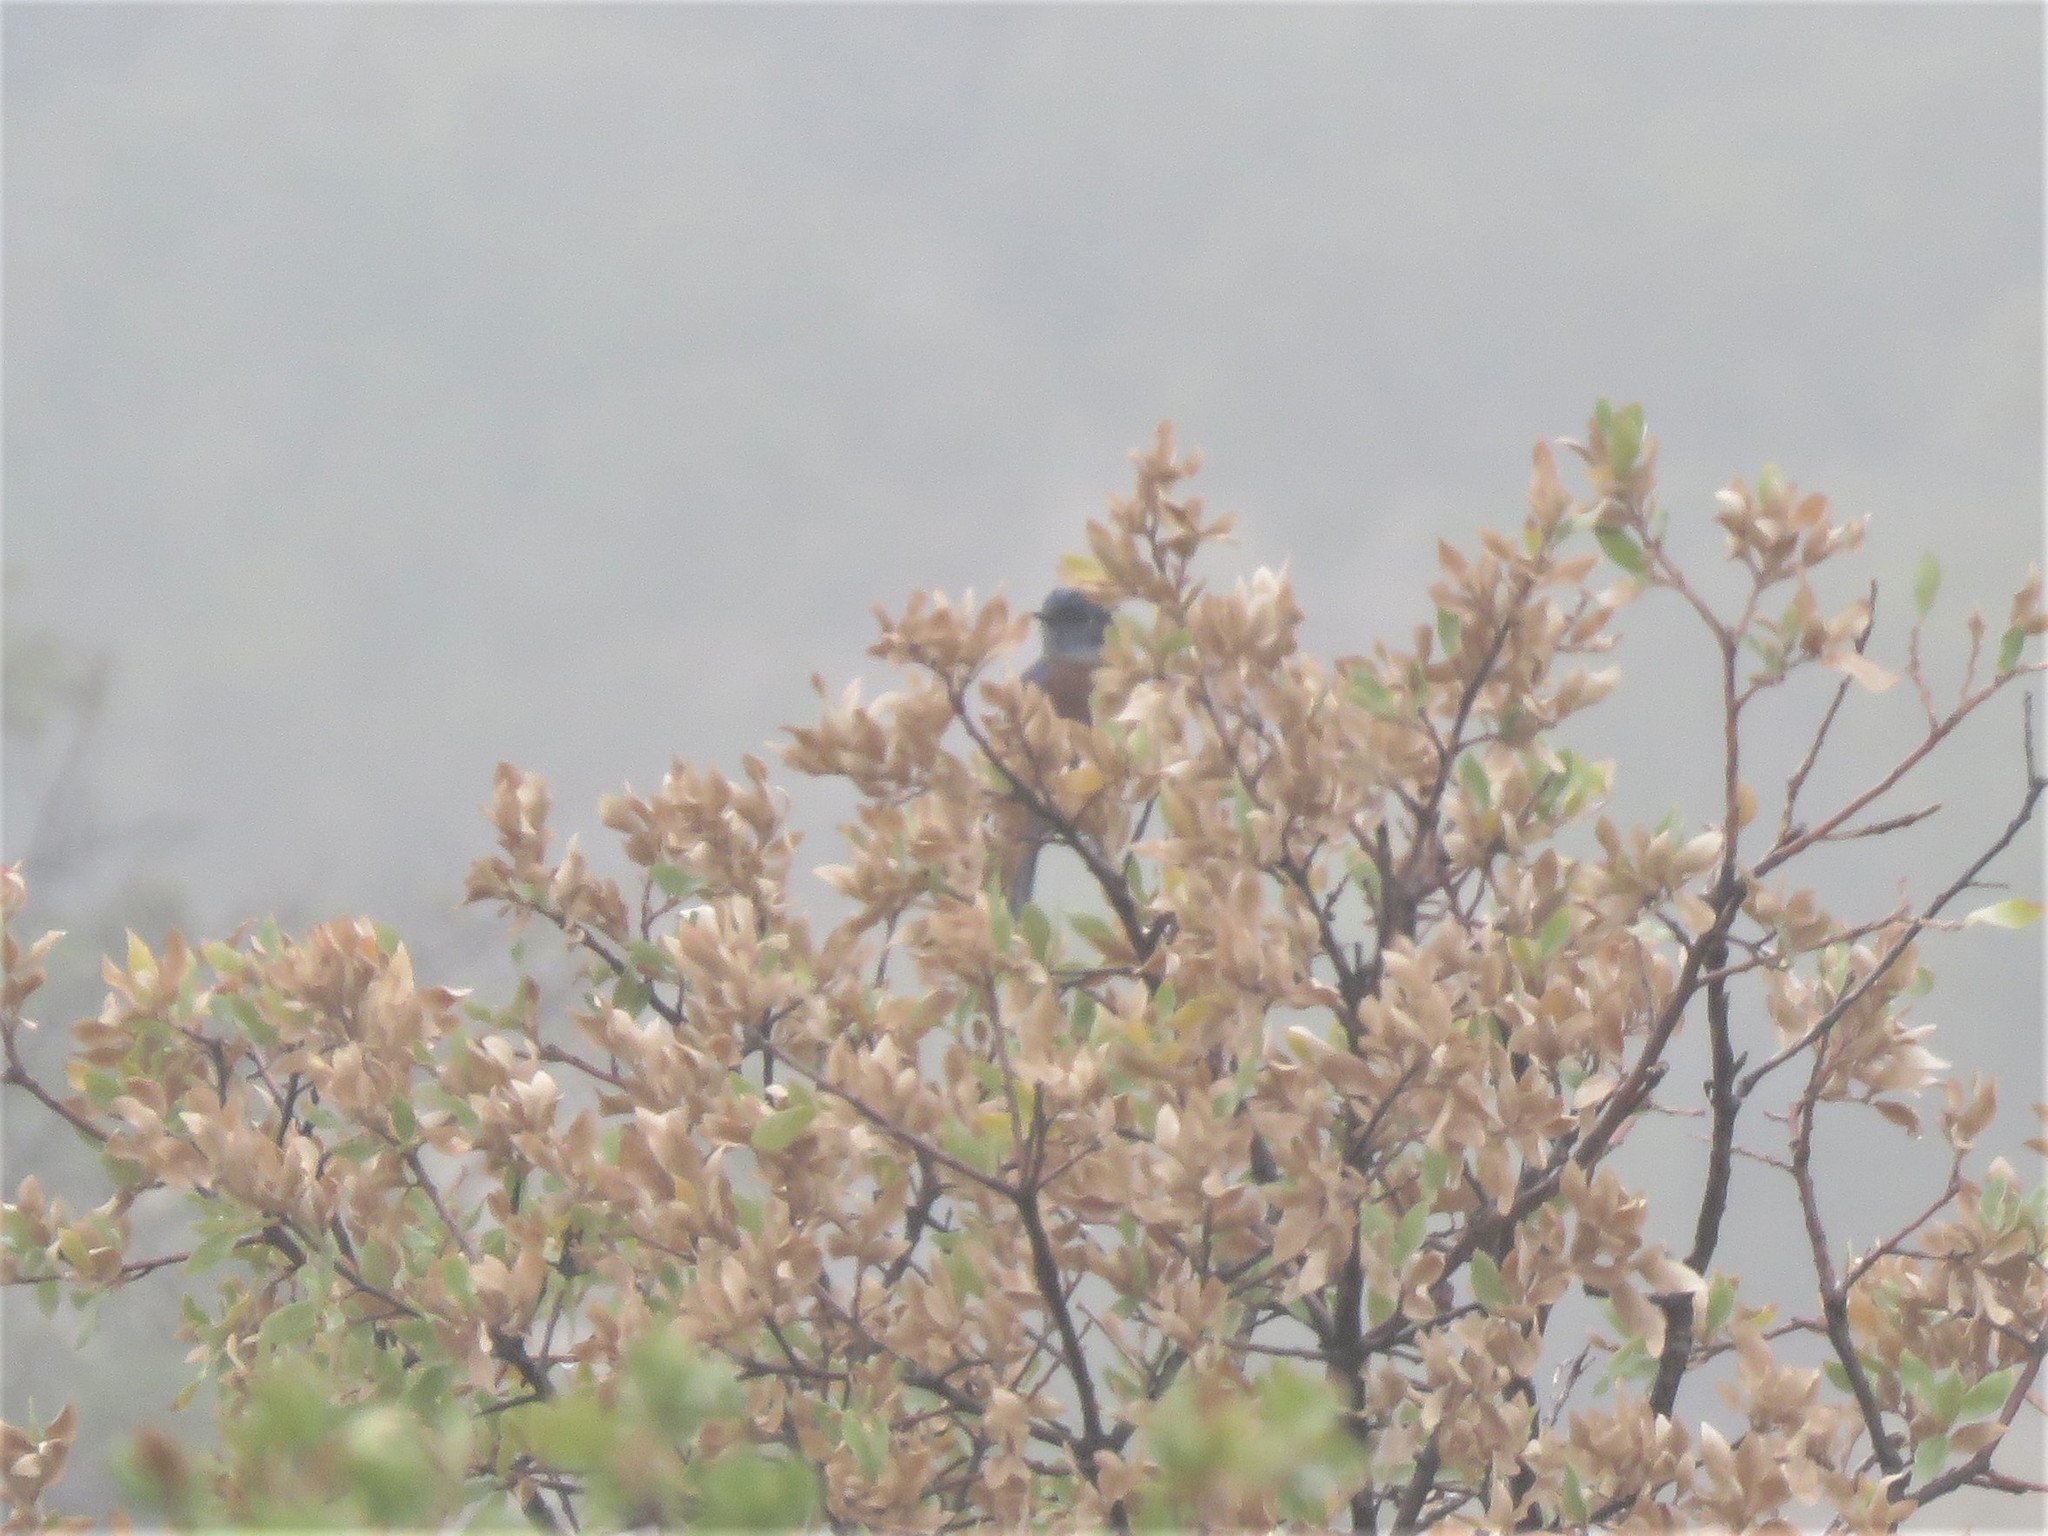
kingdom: Animalia
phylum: Chordata
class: Aves
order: Passeriformes
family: Turdidae
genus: Sialia
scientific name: Sialia mexicana
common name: Western bluebird
